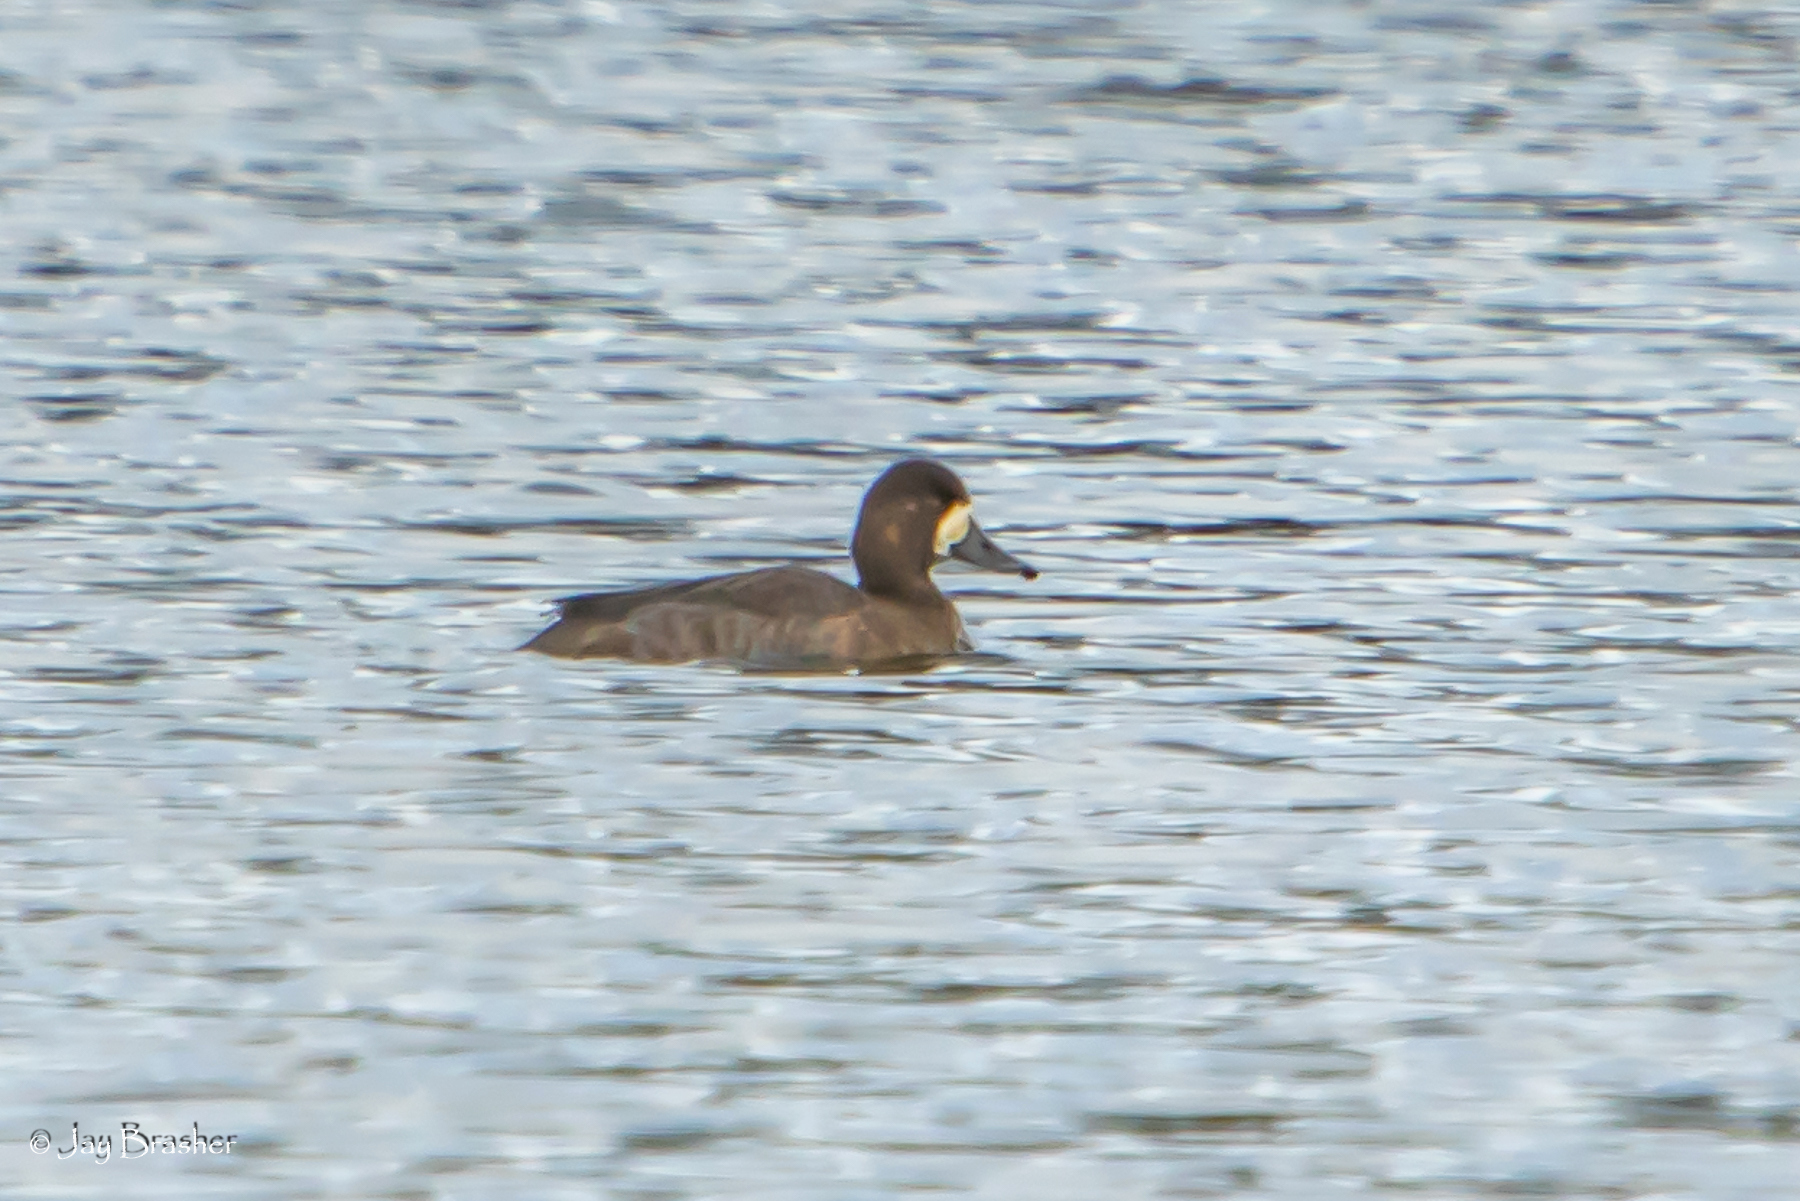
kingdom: Animalia
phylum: Chordata
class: Aves
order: Anseriformes
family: Anatidae
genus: Aythya
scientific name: Aythya affinis
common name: Lesser scaup
